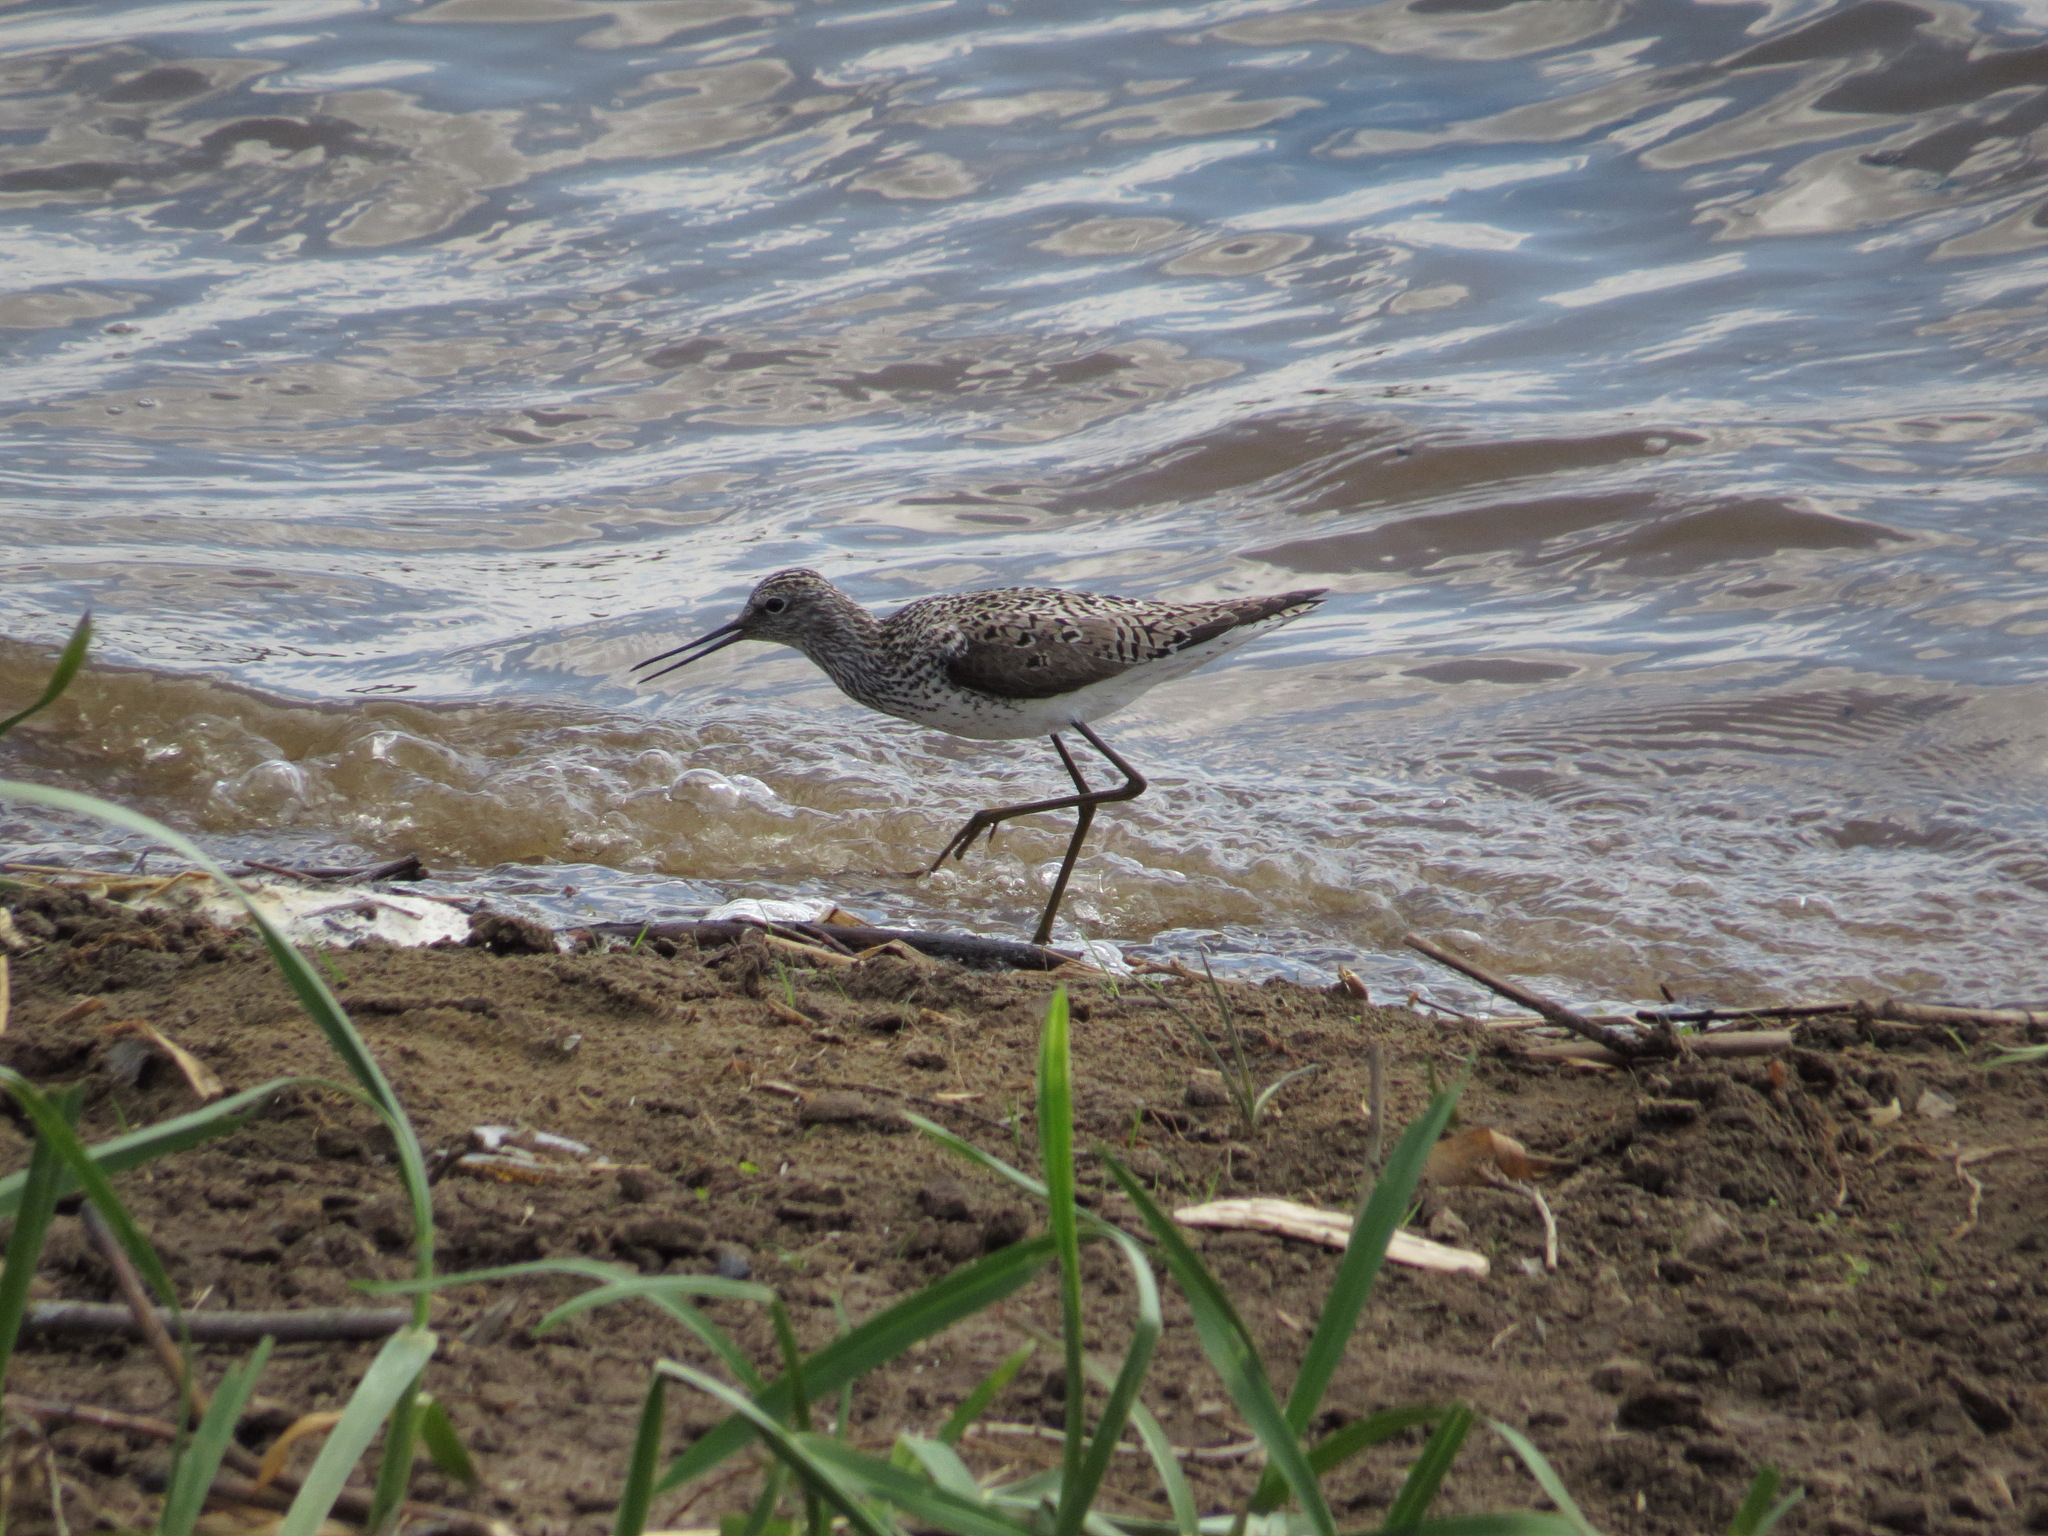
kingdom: Animalia
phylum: Chordata
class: Aves
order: Charadriiformes
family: Scolopacidae
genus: Tringa
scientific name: Tringa stagnatilis
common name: Marsh sandpiper
